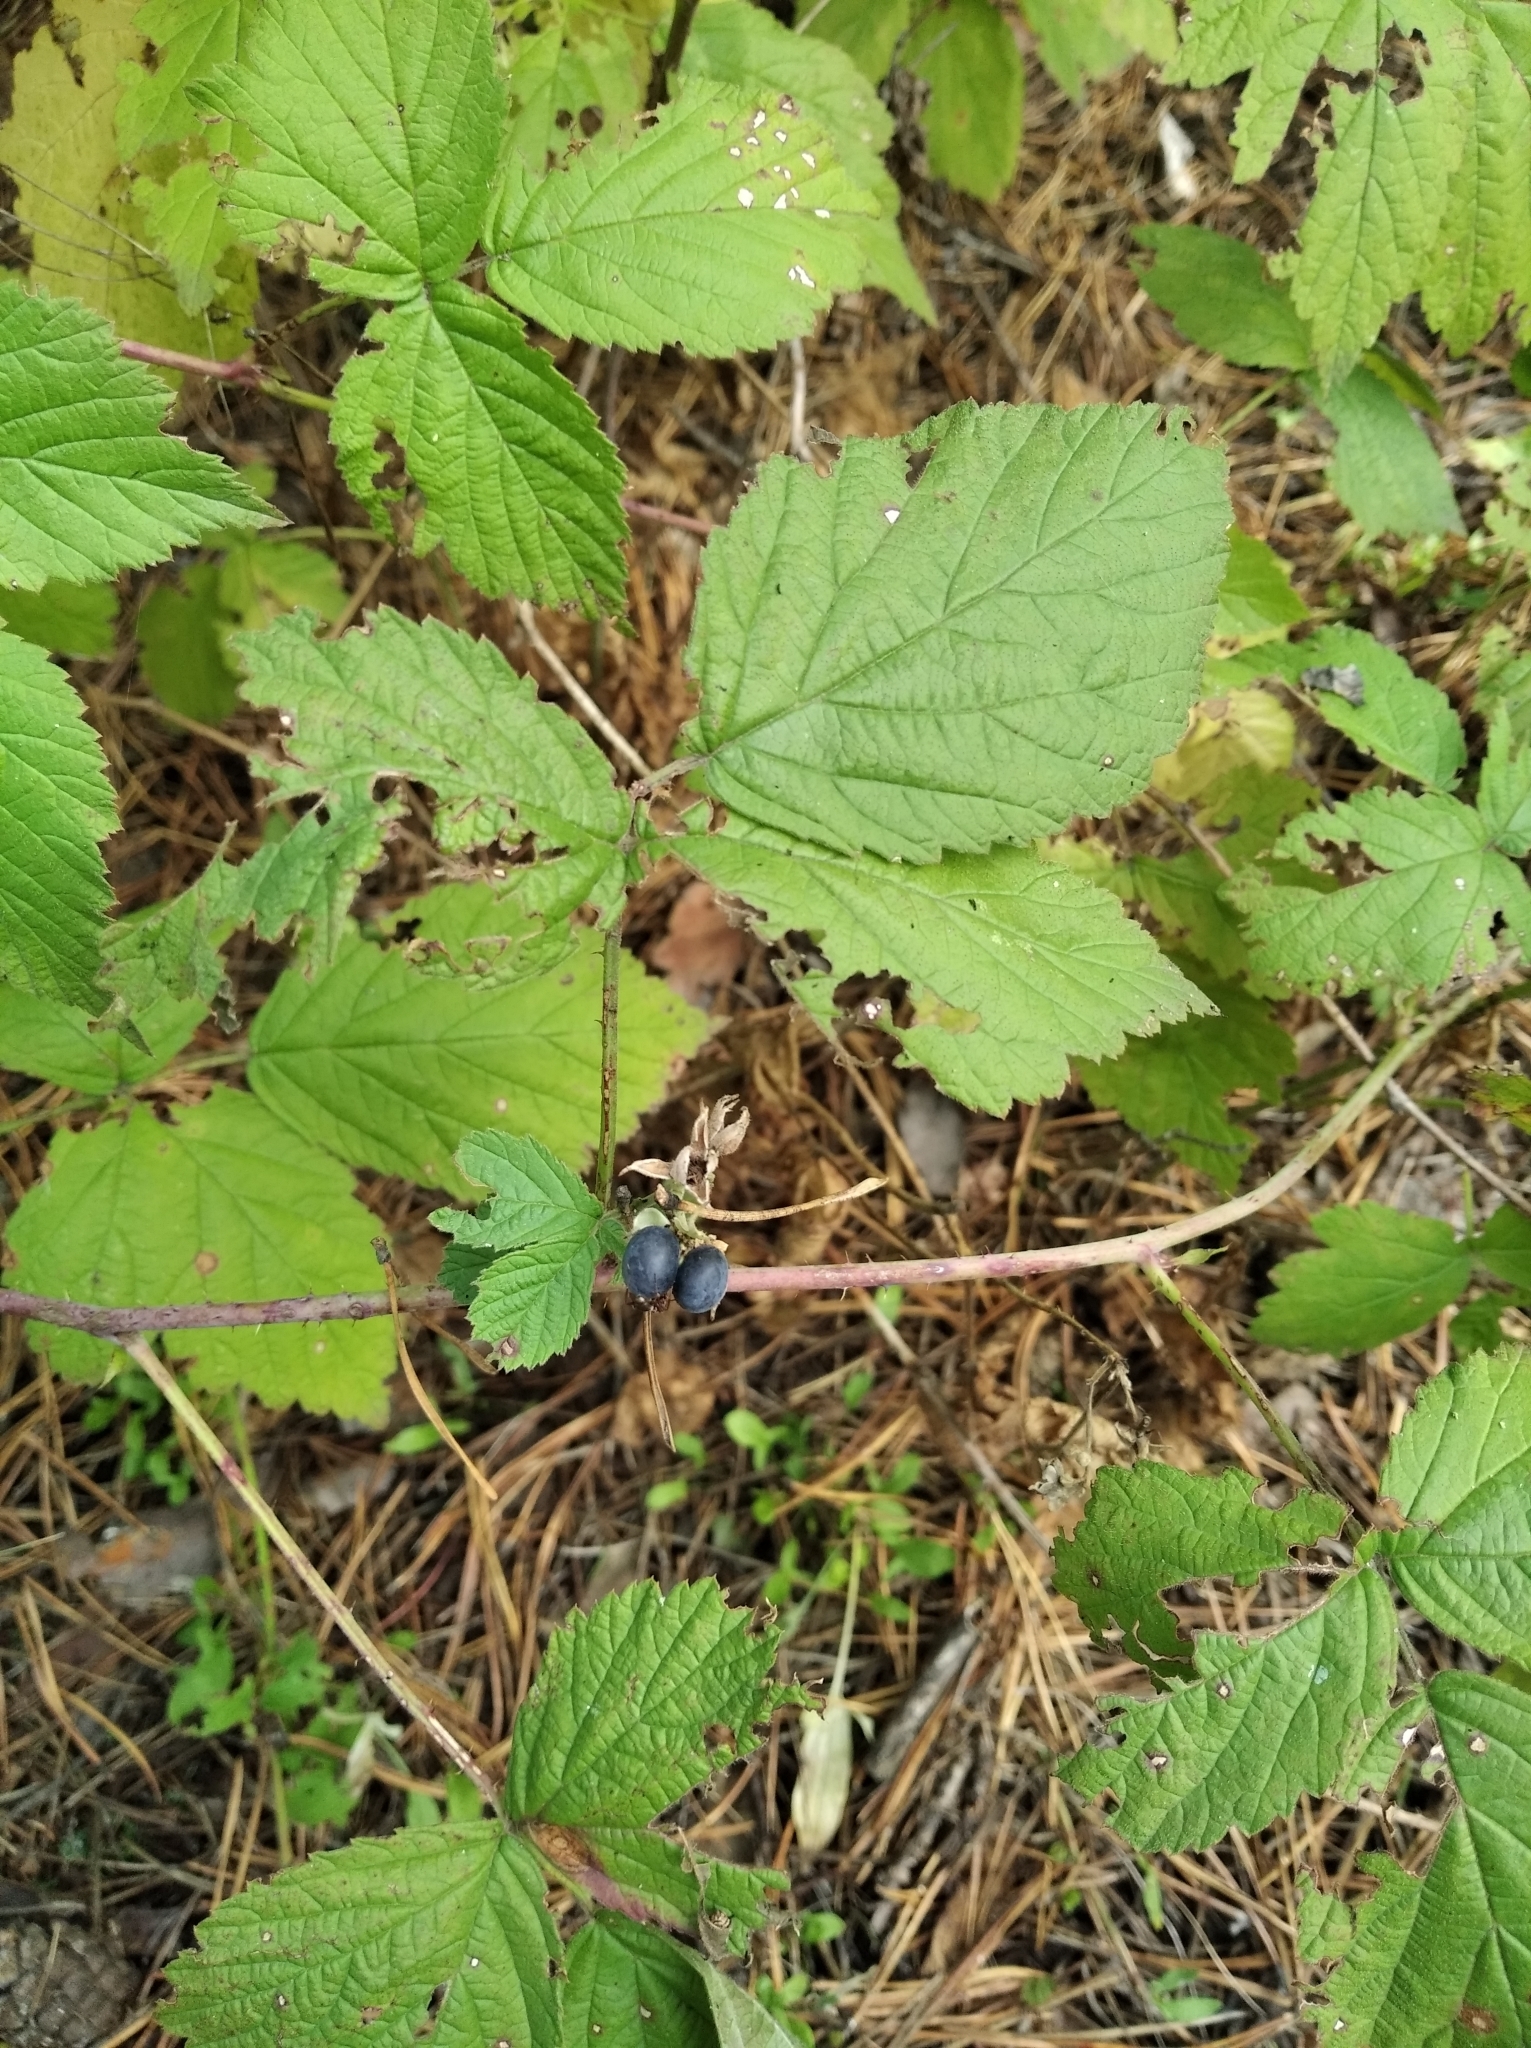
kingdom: Plantae
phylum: Tracheophyta
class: Magnoliopsida
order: Rosales
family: Rosaceae
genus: Rubus
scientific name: Rubus caesius
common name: Dewberry
